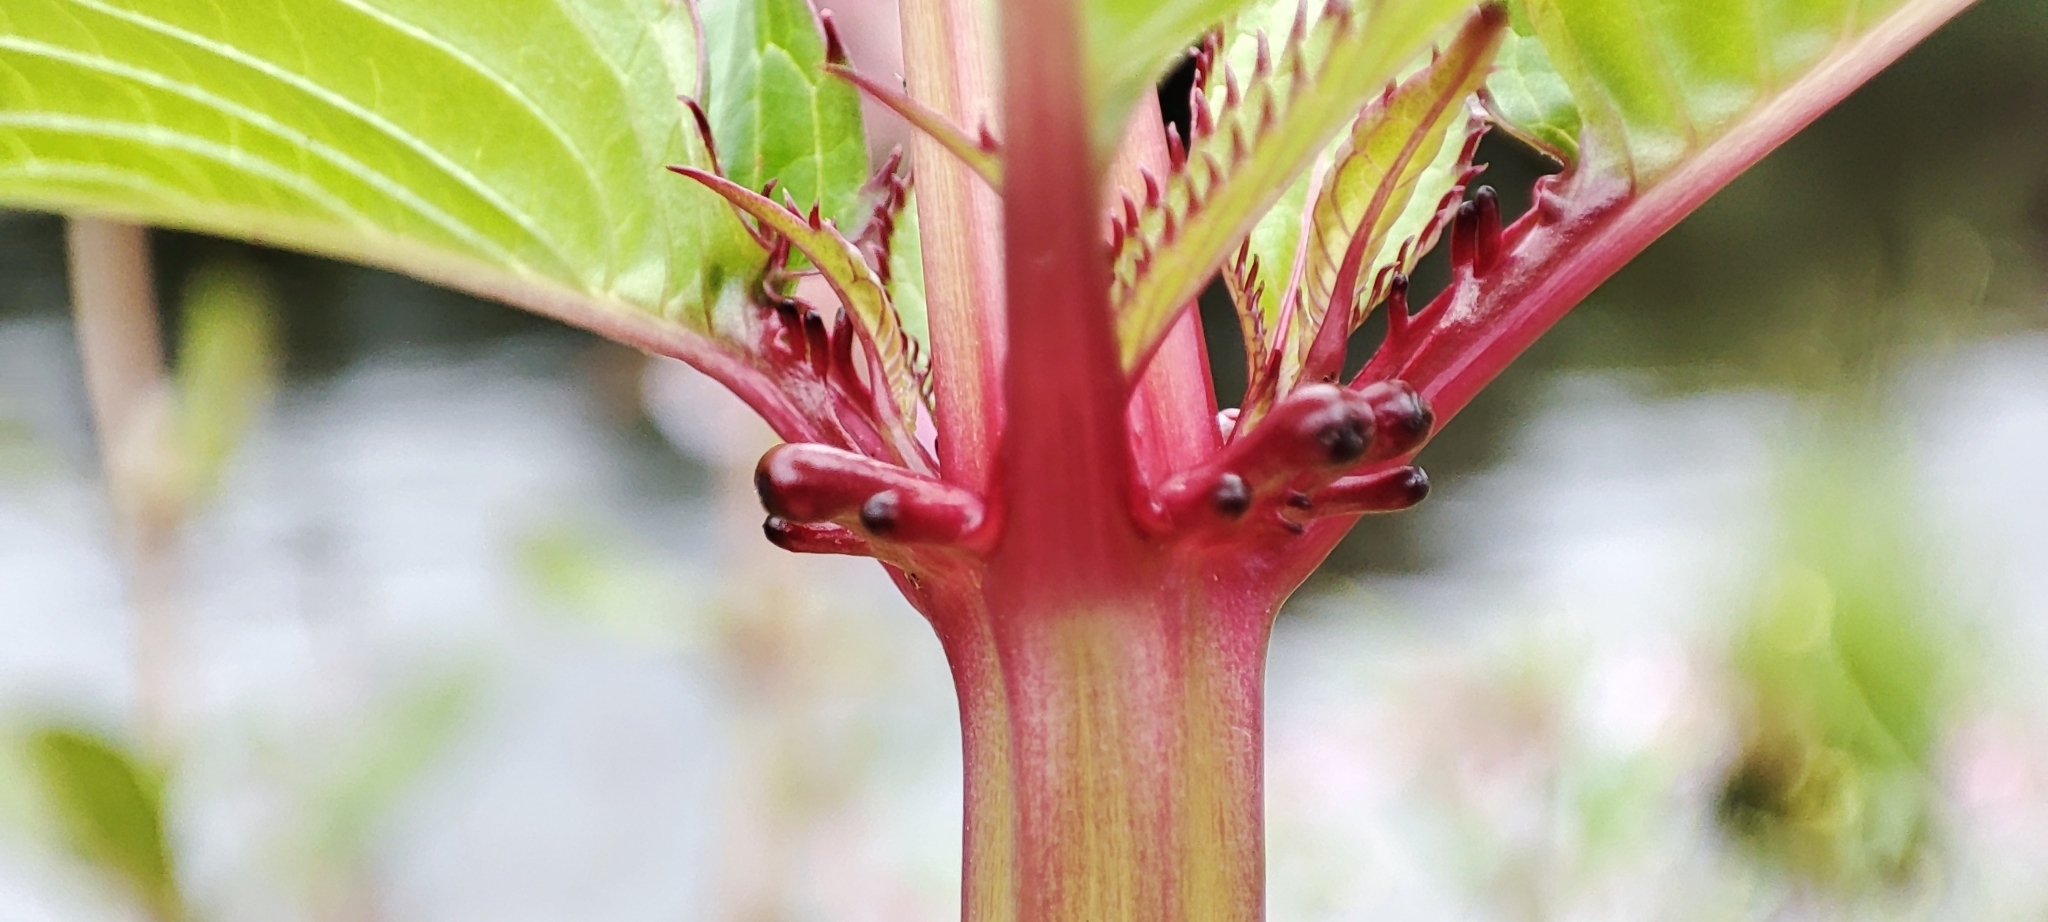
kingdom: Plantae
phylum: Tracheophyta
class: Magnoliopsida
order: Ericales
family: Balsaminaceae
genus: Impatiens
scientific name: Impatiens glandulifera
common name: Himalayan balsam
